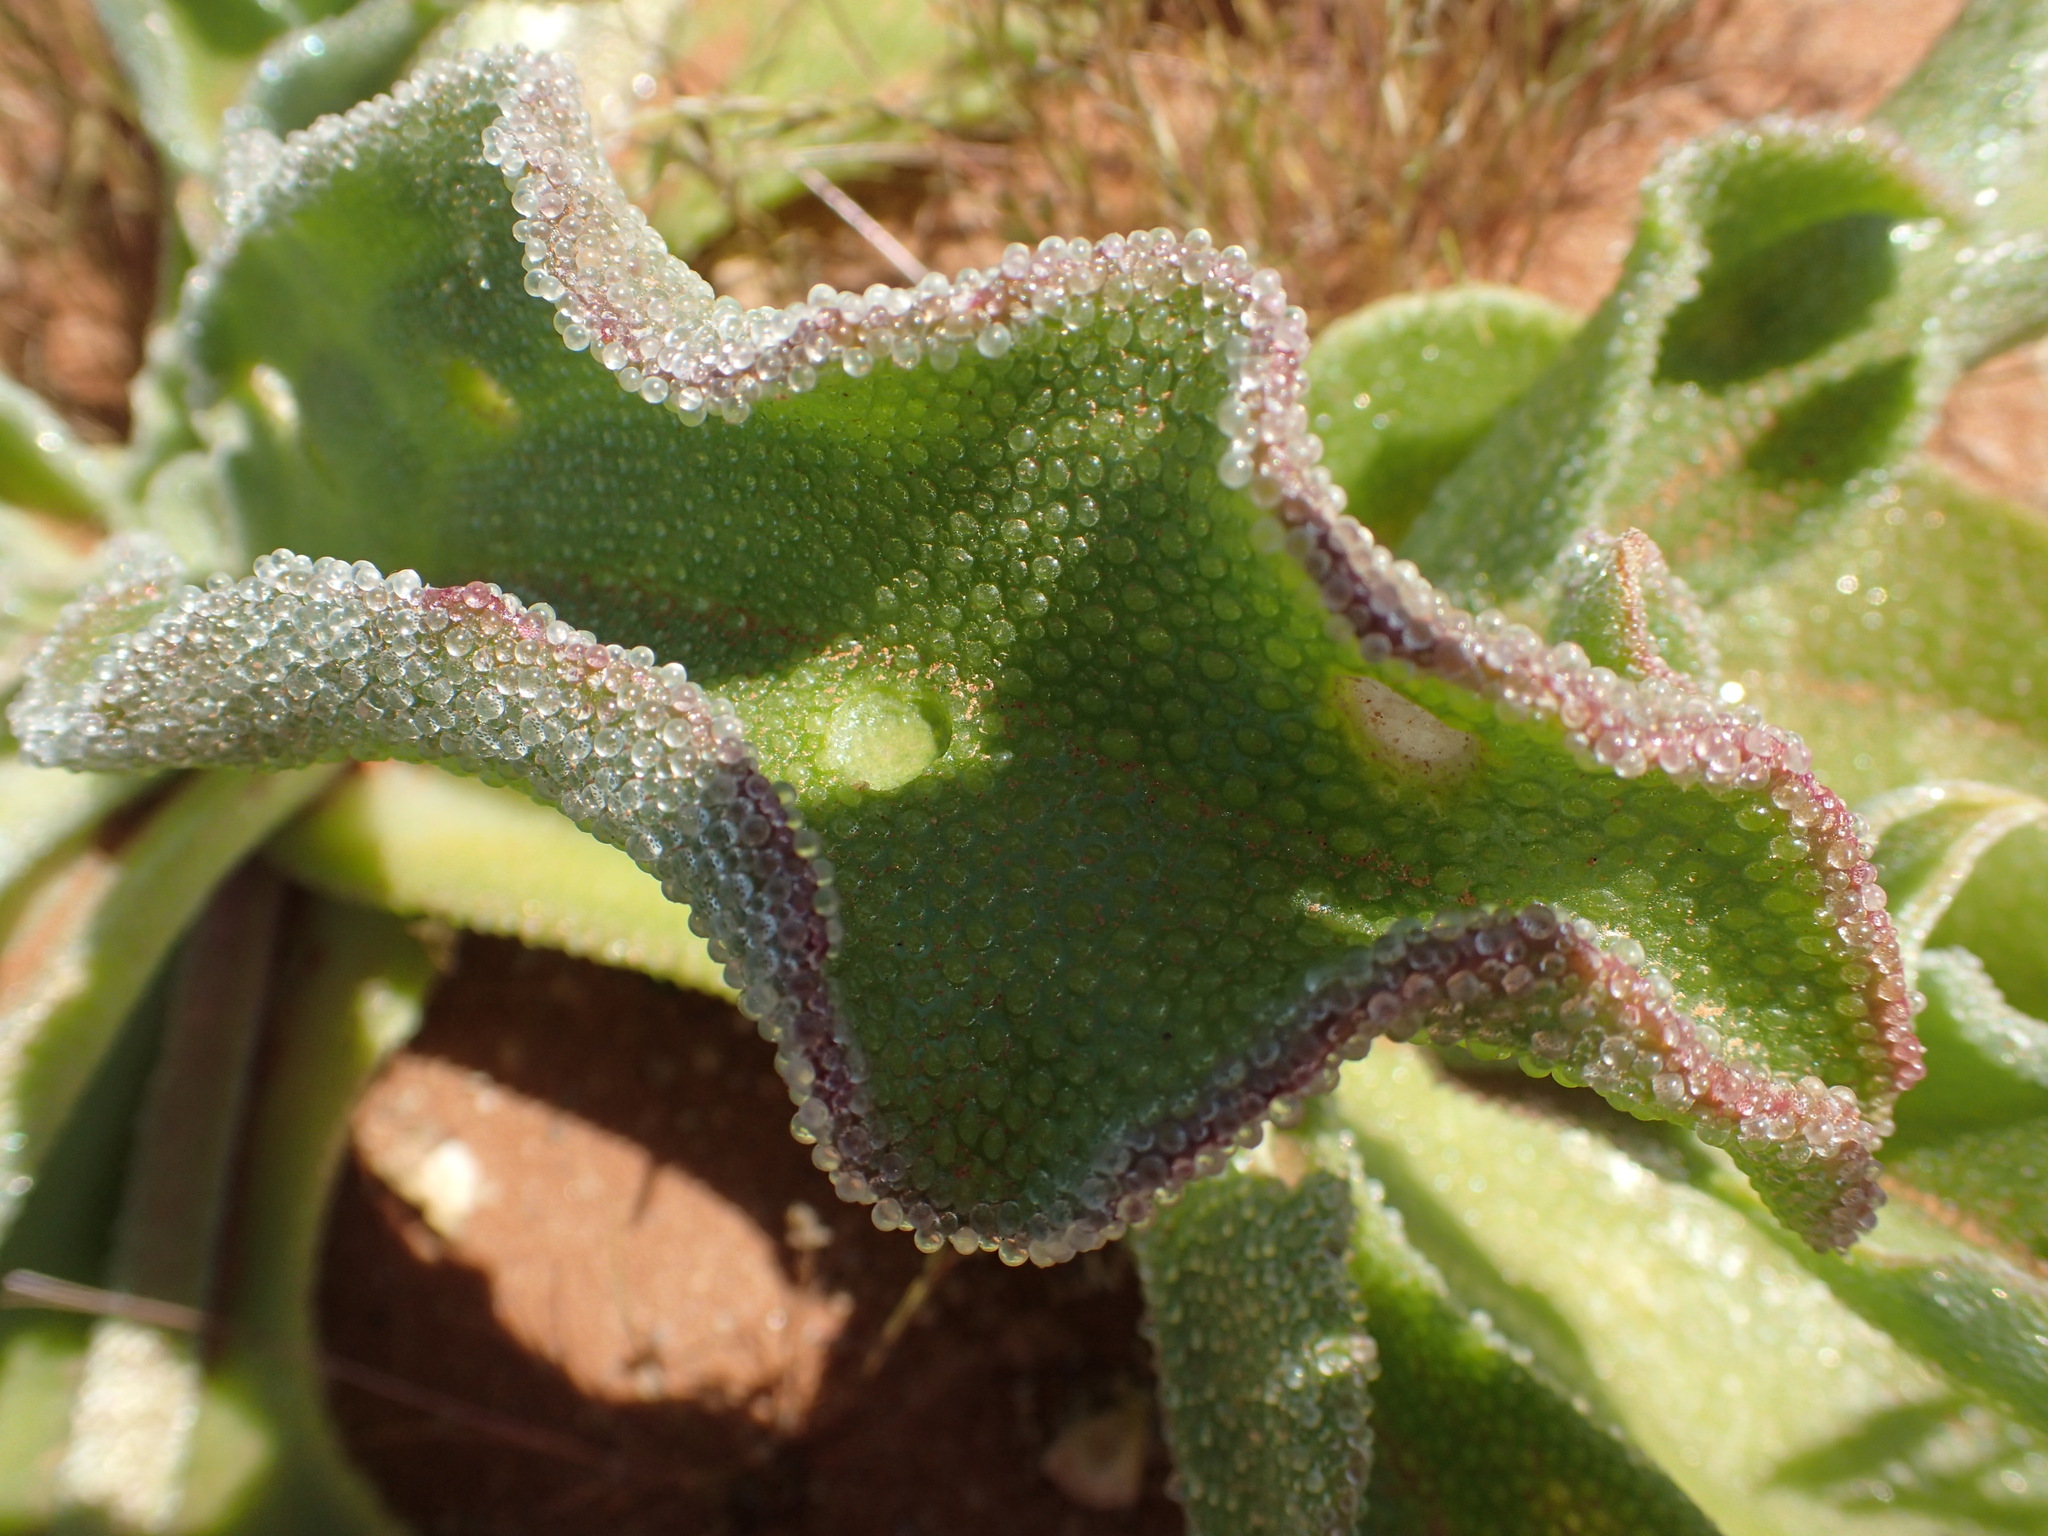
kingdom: Plantae
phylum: Tracheophyta
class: Magnoliopsida
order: Caryophyllales
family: Aizoaceae
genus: Mesembryanthemum
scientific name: Mesembryanthemum guerichianum
